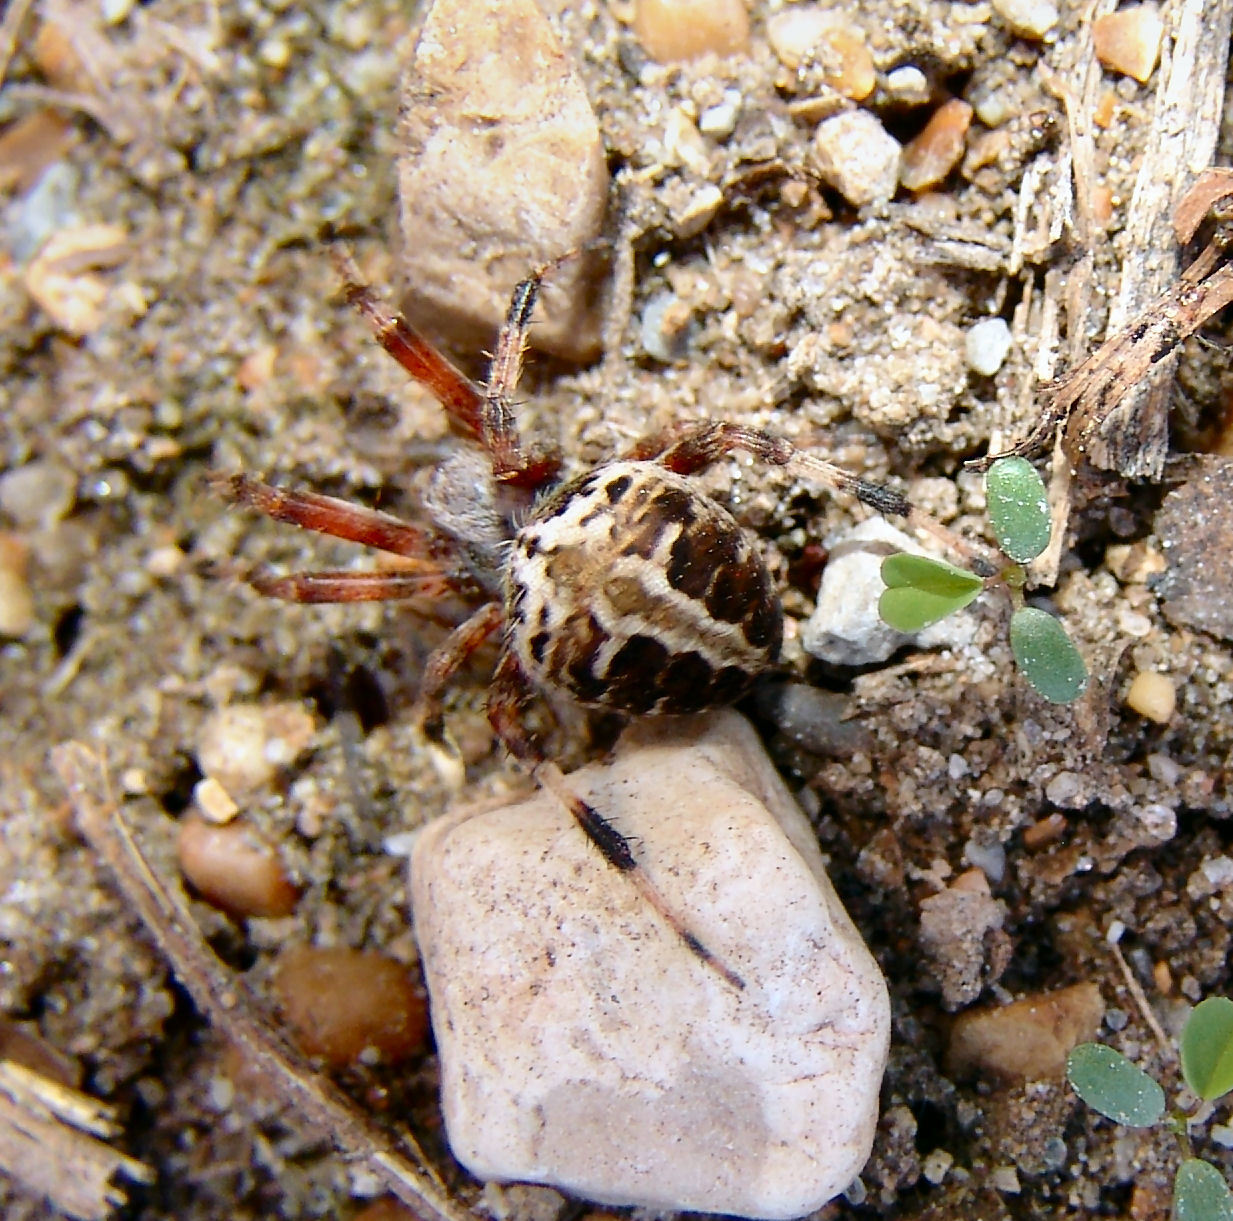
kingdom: Animalia
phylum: Arthropoda
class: Arachnida
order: Araneae
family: Araneidae
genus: Neoscona
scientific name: Neoscona domiciliorum
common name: Red-femured spotted orbweaver
